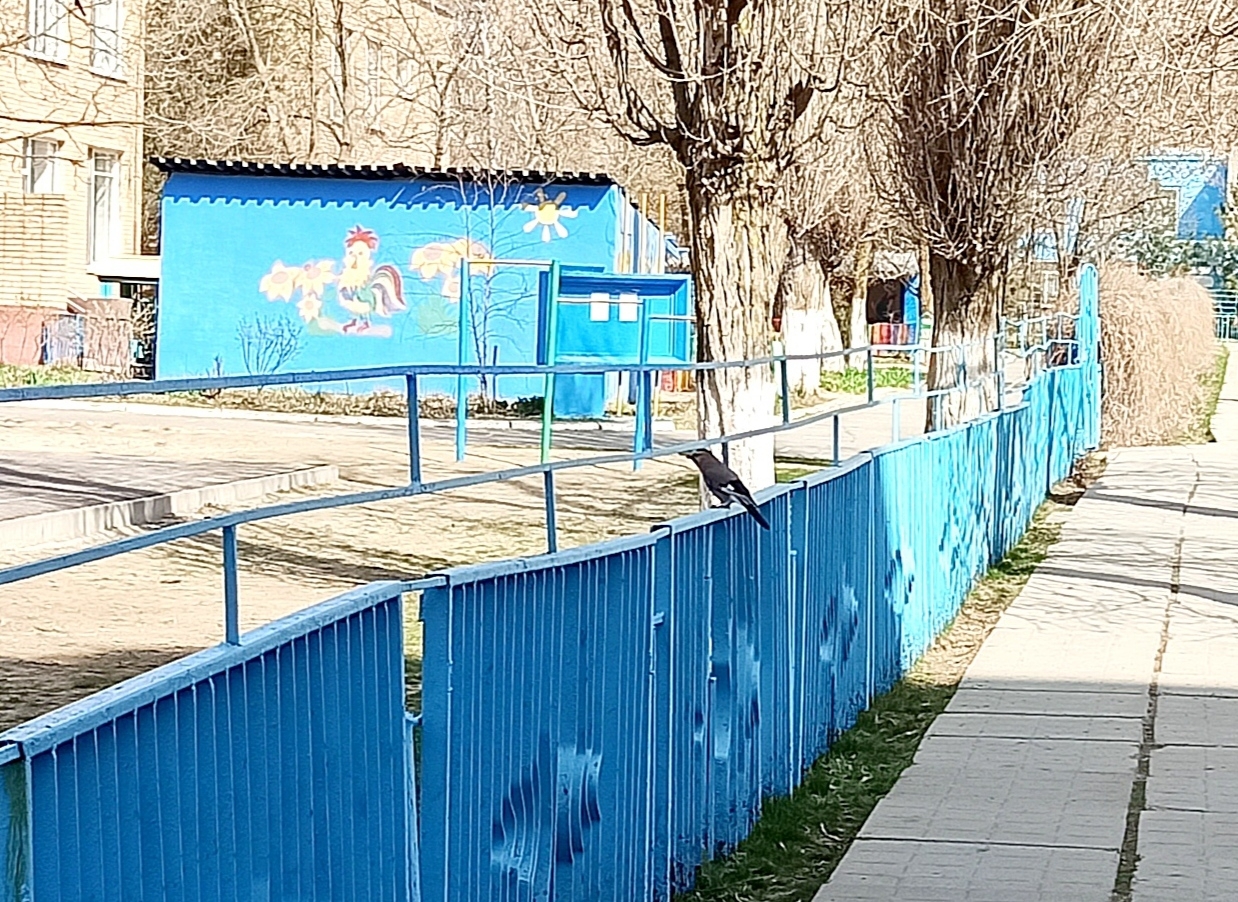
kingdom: Animalia
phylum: Chordata
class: Aves
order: Passeriformes
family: Corvidae
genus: Garrulus
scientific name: Garrulus glandarius
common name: Eurasian jay
